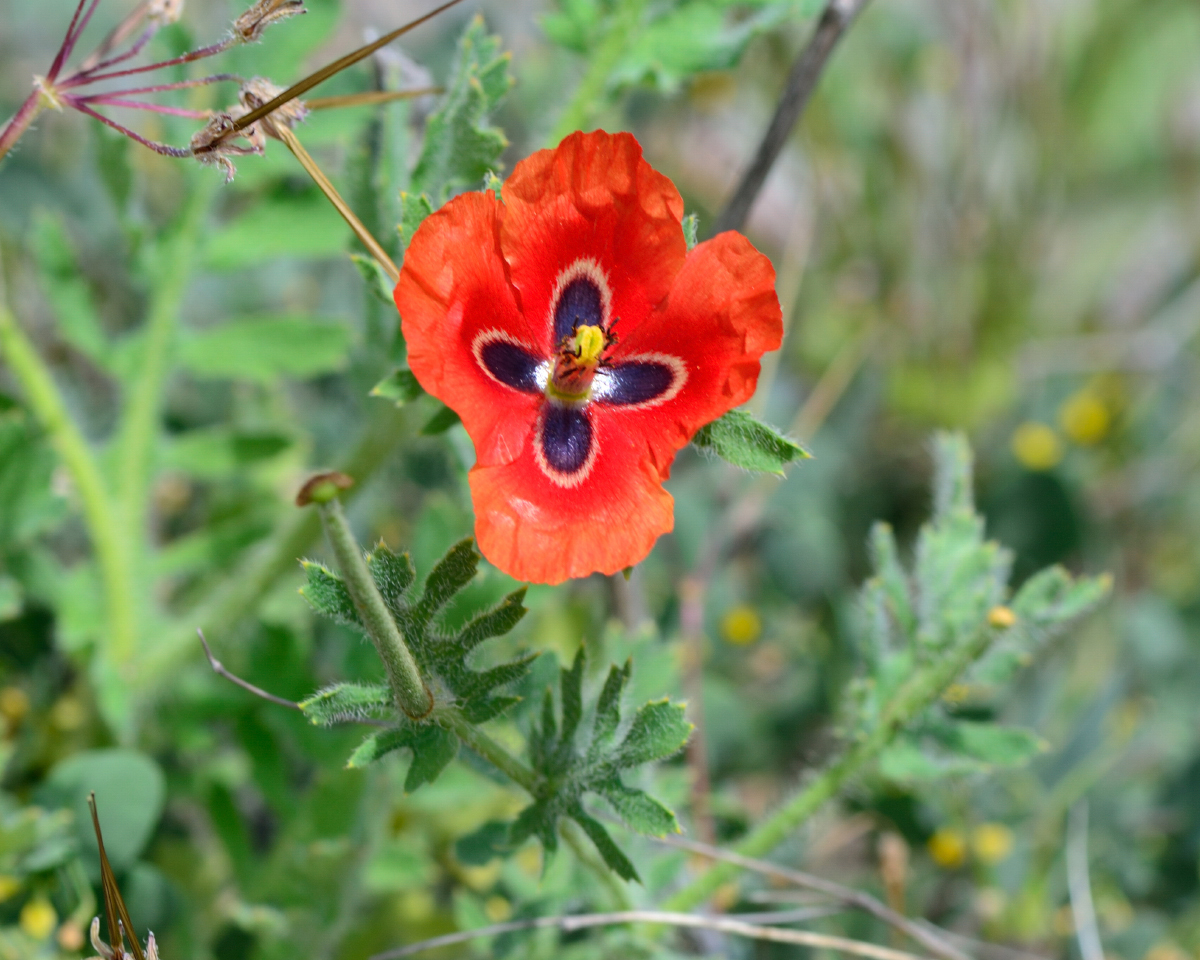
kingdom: Plantae
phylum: Tracheophyta
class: Magnoliopsida
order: Ranunculales
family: Papaveraceae
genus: Glaucium
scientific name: Glaucium corniculatum
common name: Red horned-poppy
